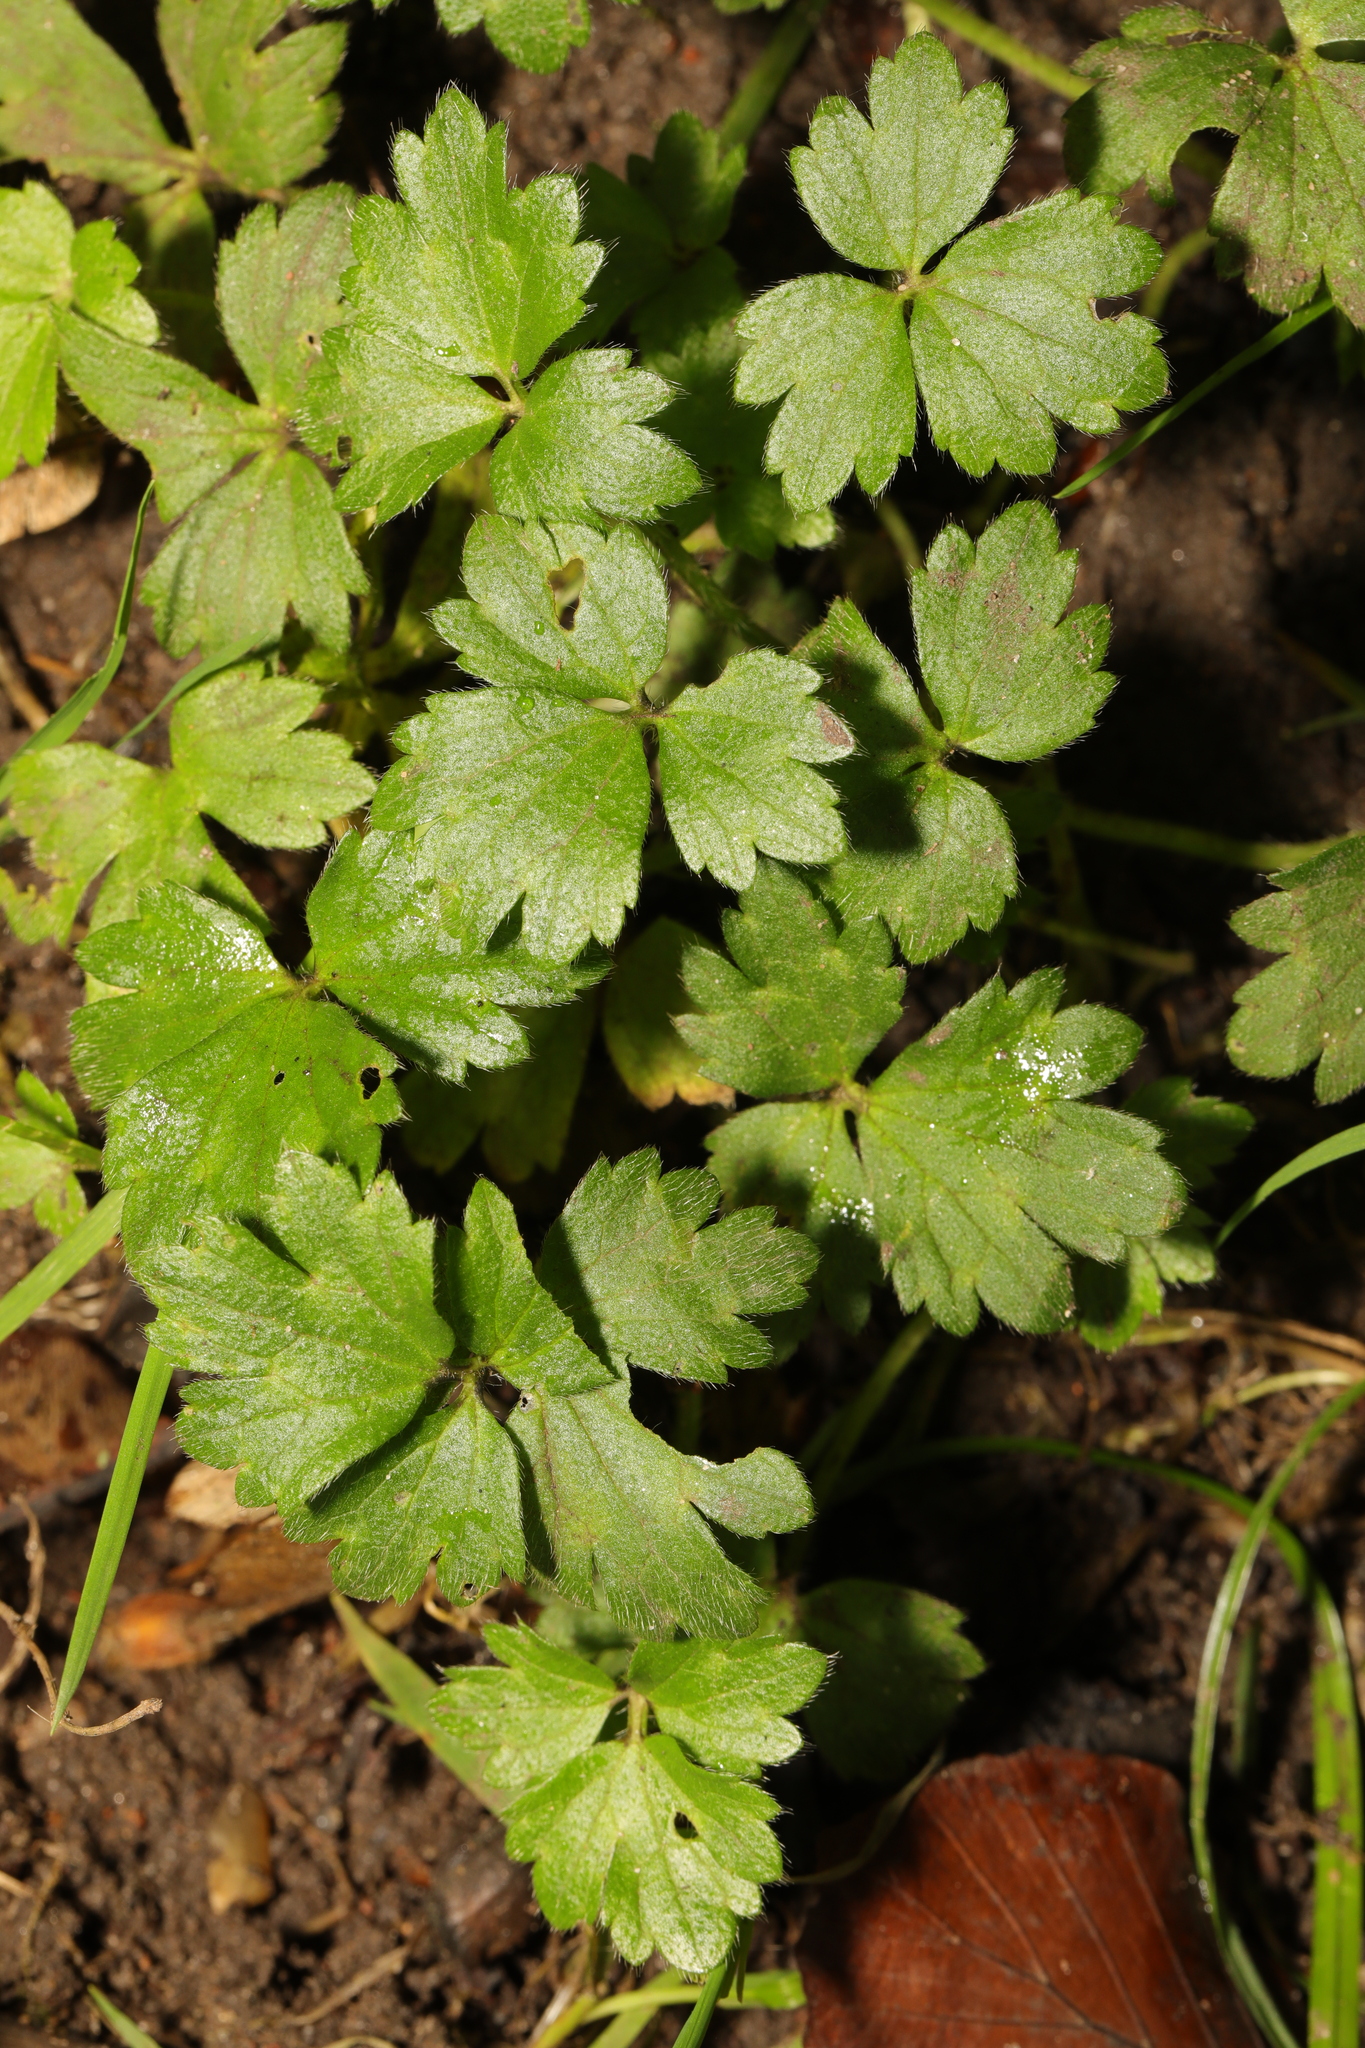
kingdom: Plantae
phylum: Tracheophyta
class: Magnoliopsida
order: Ranunculales
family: Ranunculaceae
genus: Ranunculus
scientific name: Ranunculus repens
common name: Creeping buttercup
